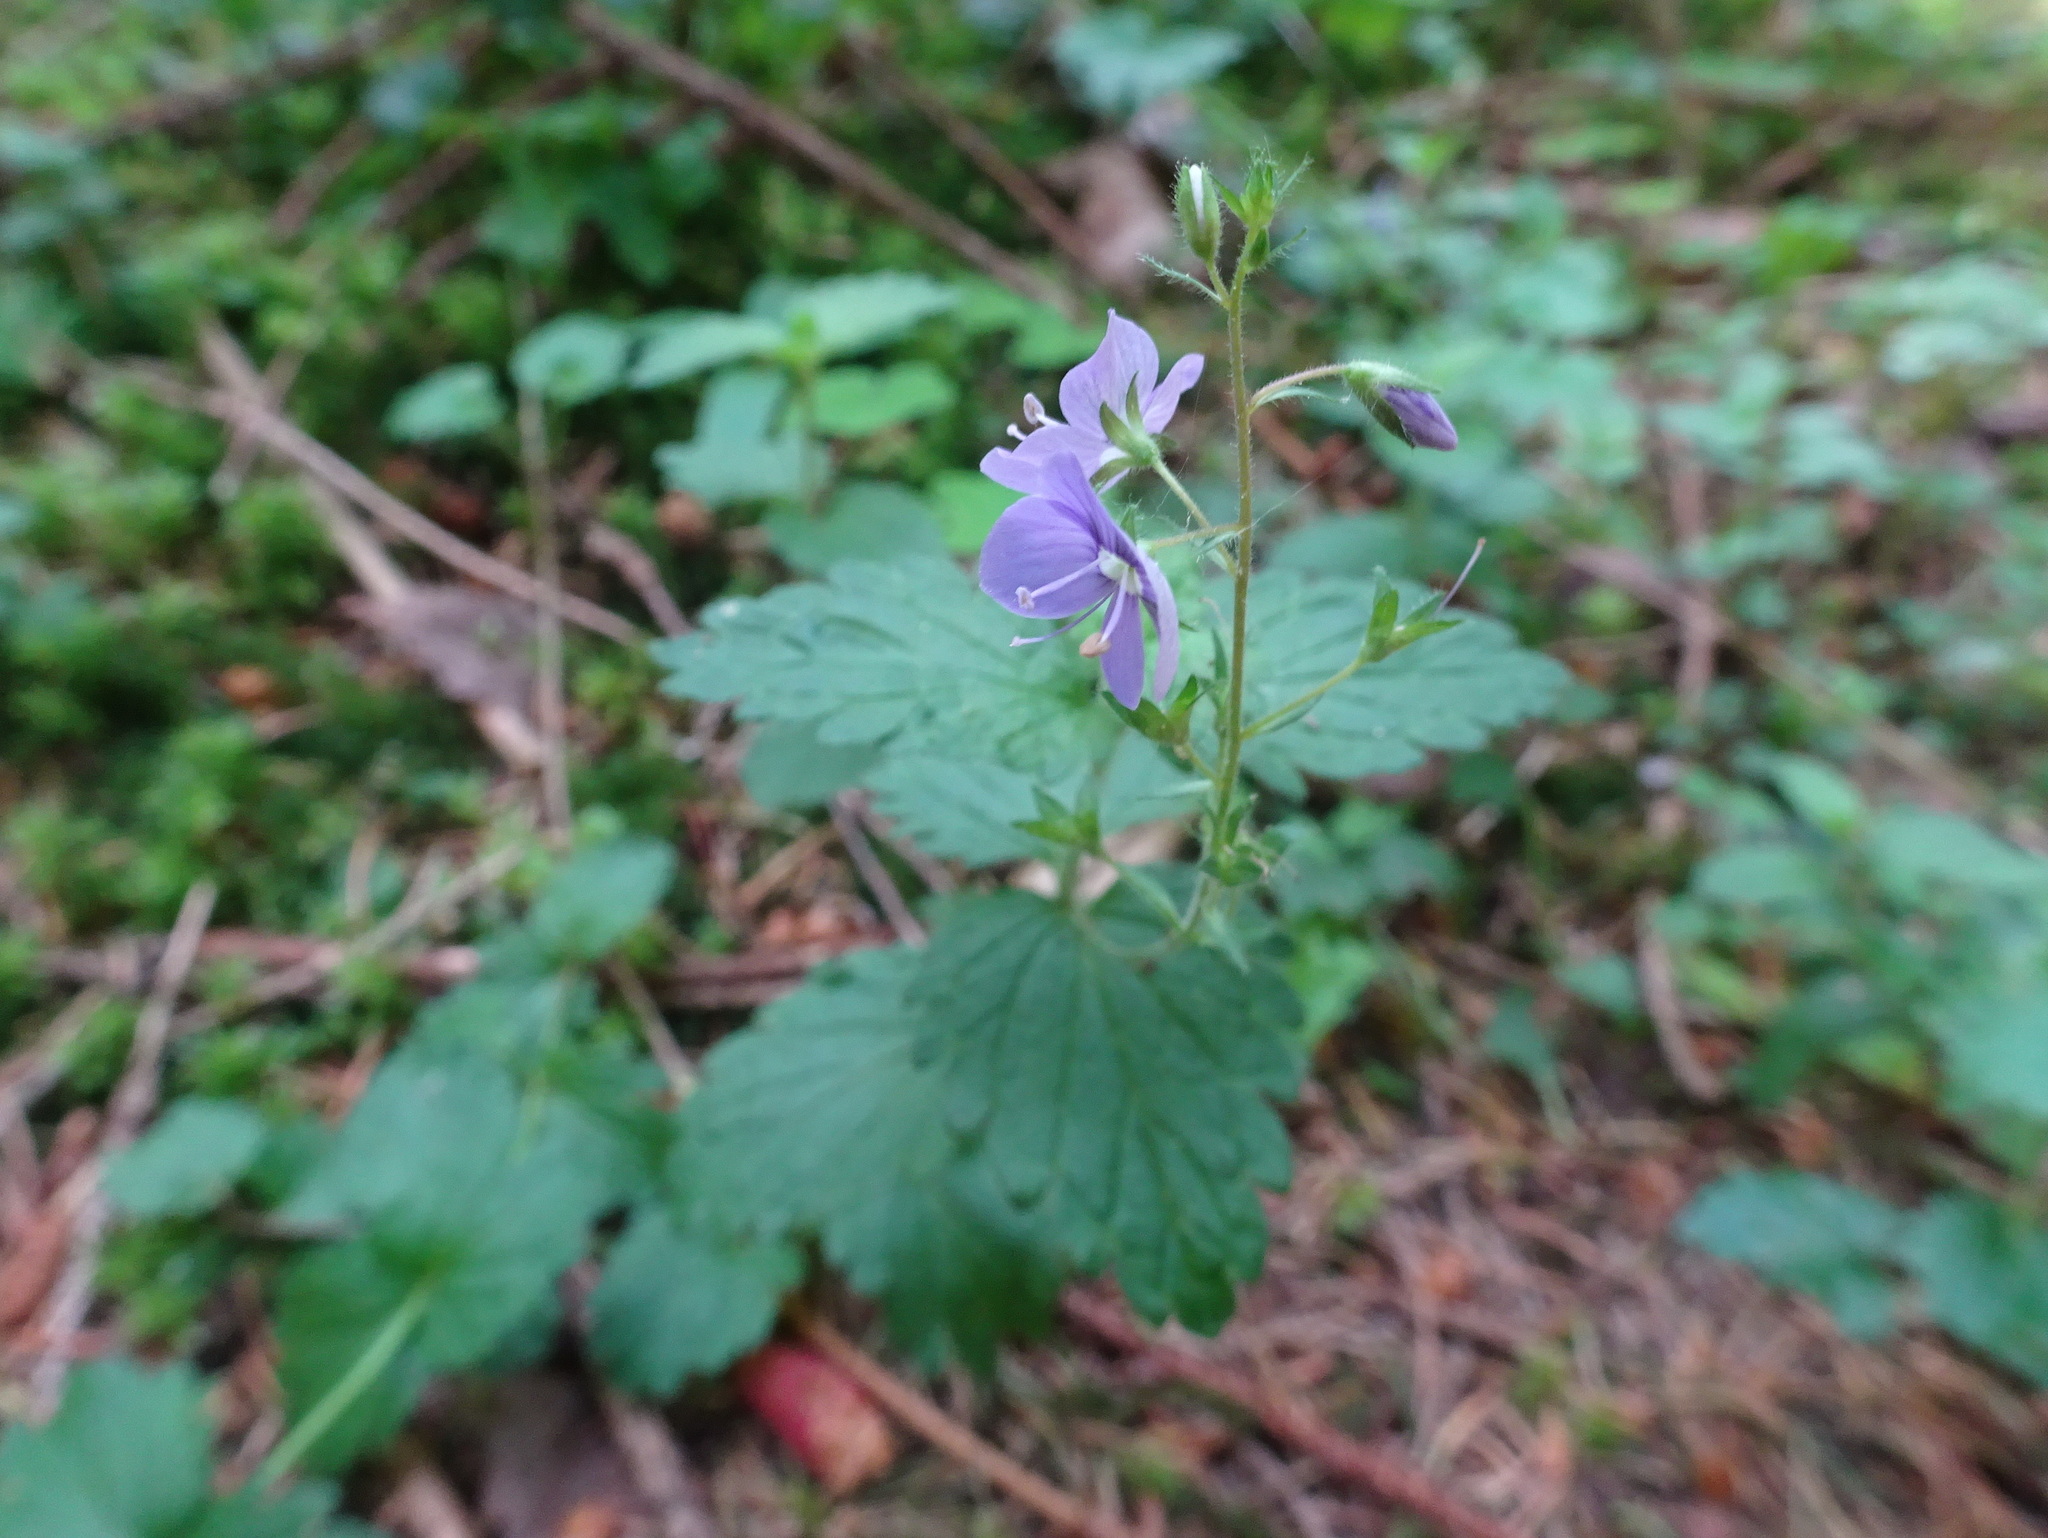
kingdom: Plantae
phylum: Tracheophyta
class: Magnoliopsida
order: Lamiales
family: Plantaginaceae
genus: Veronica
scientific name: Veronica chamaedrys
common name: Germander speedwell
